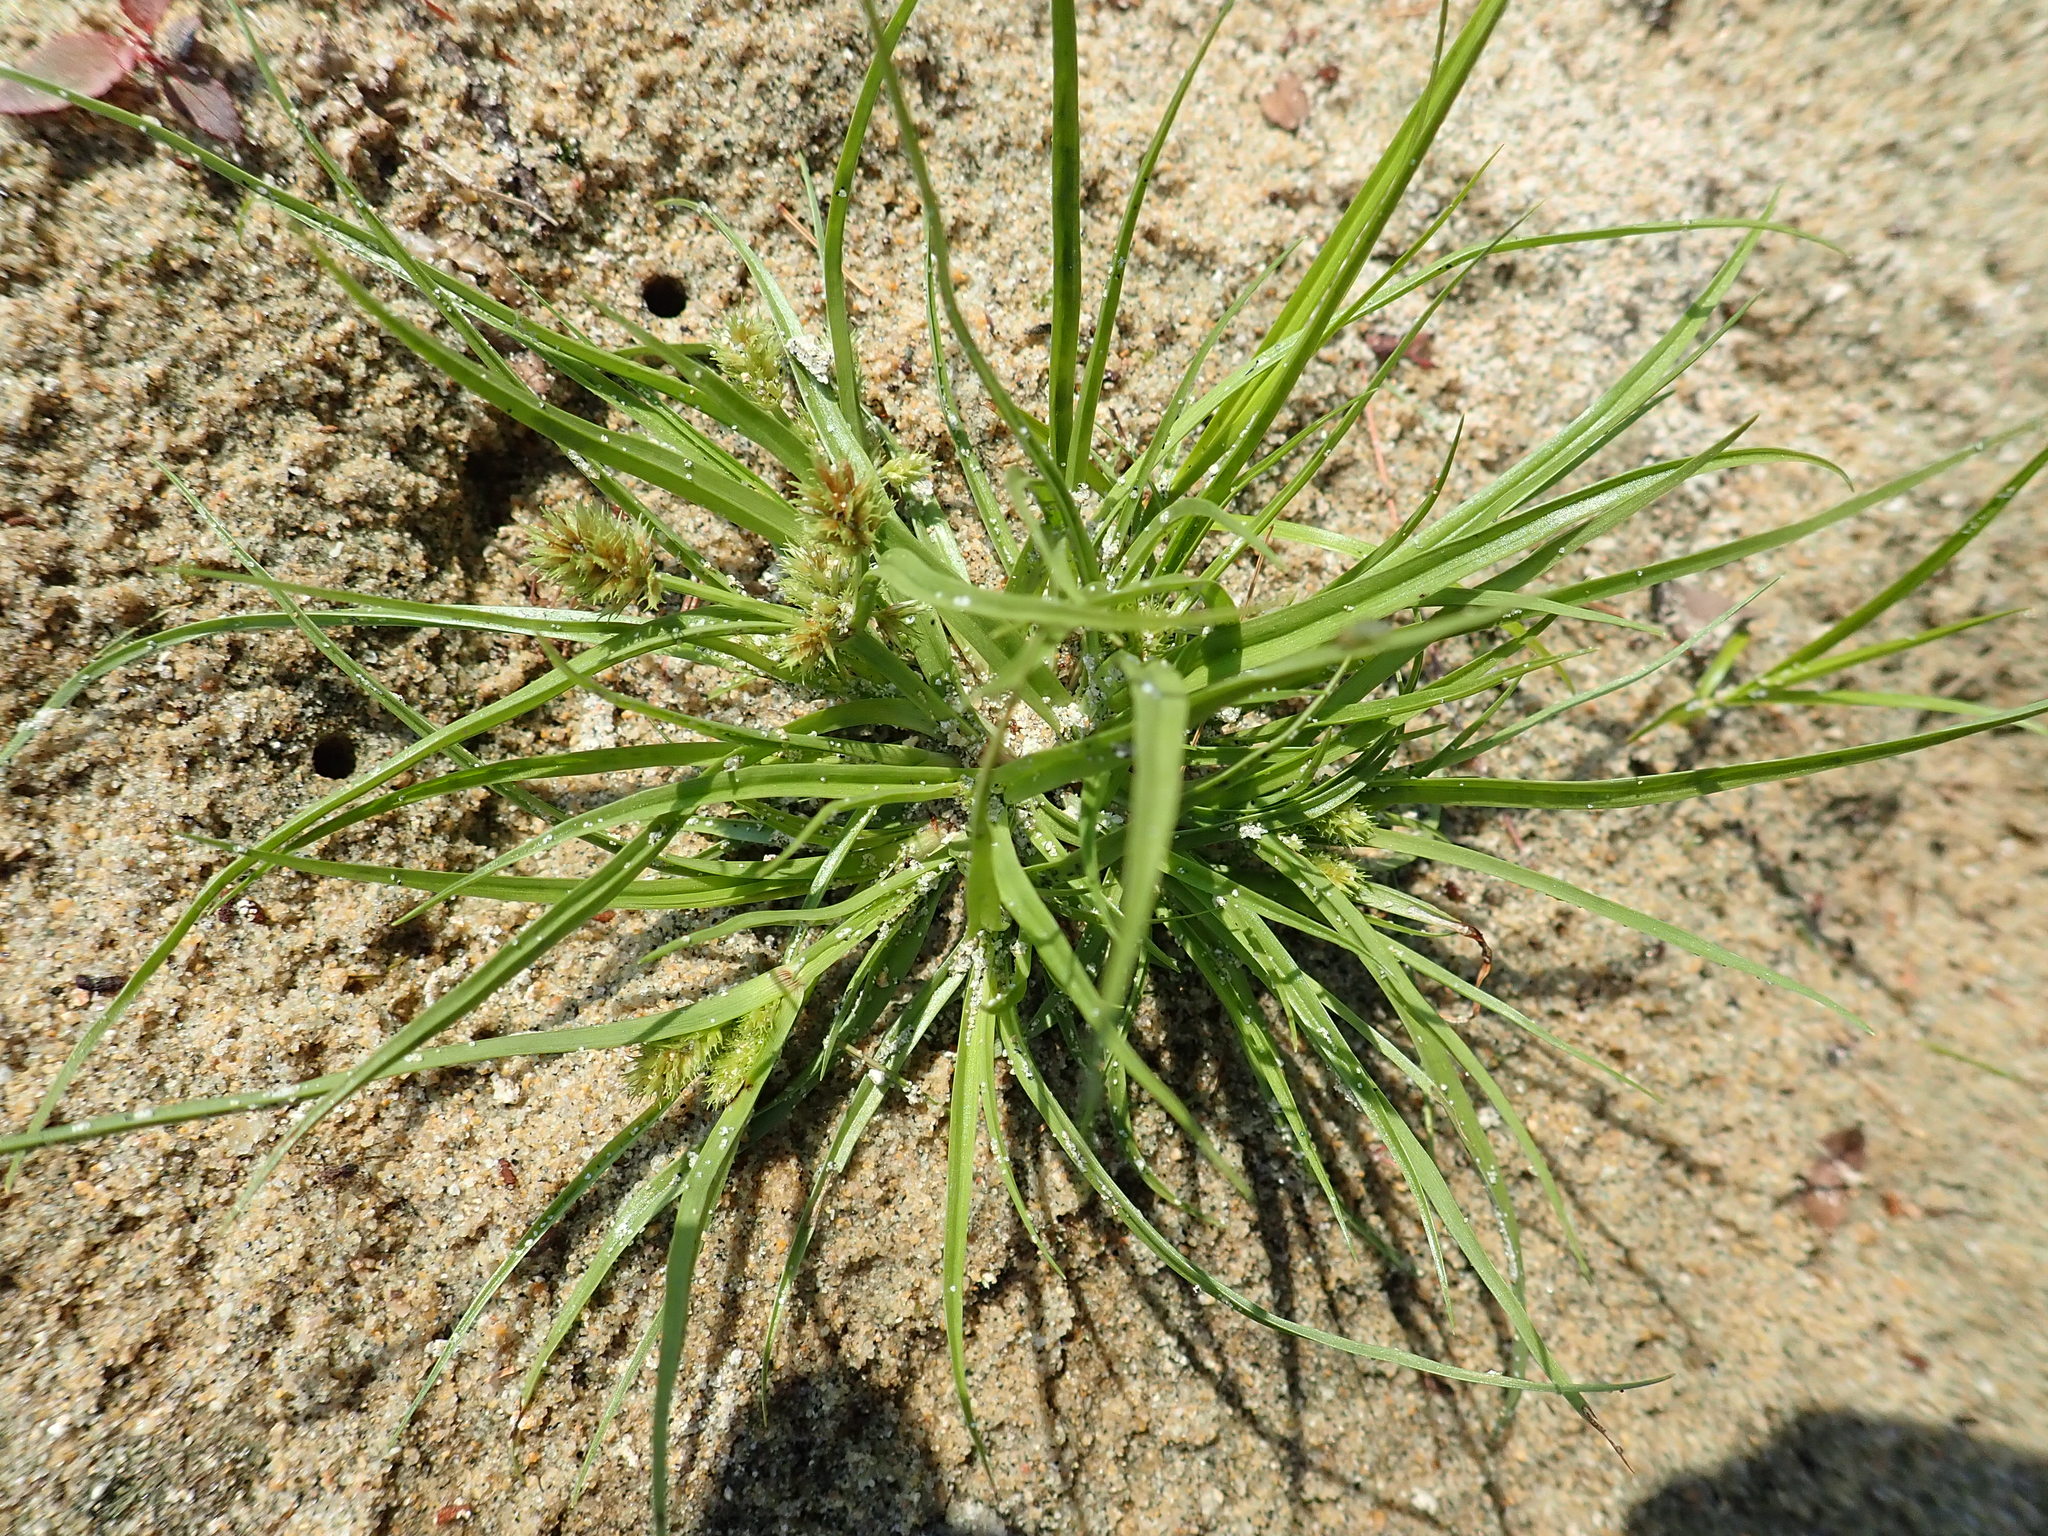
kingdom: Plantae
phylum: Tracheophyta
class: Liliopsida
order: Poales
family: Cyperaceae
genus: Cyperus
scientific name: Cyperus squarrosus
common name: Awned cyperus
